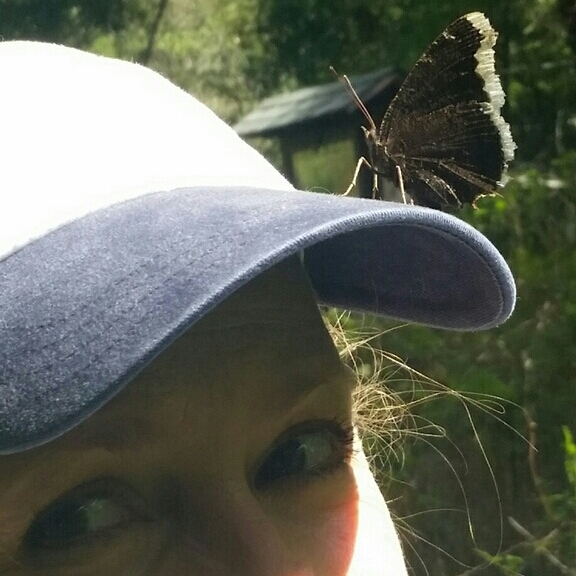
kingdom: Animalia
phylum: Arthropoda
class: Insecta
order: Lepidoptera
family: Nymphalidae
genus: Nymphalis
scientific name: Nymphalis antiopa
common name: Camberwell beauty
